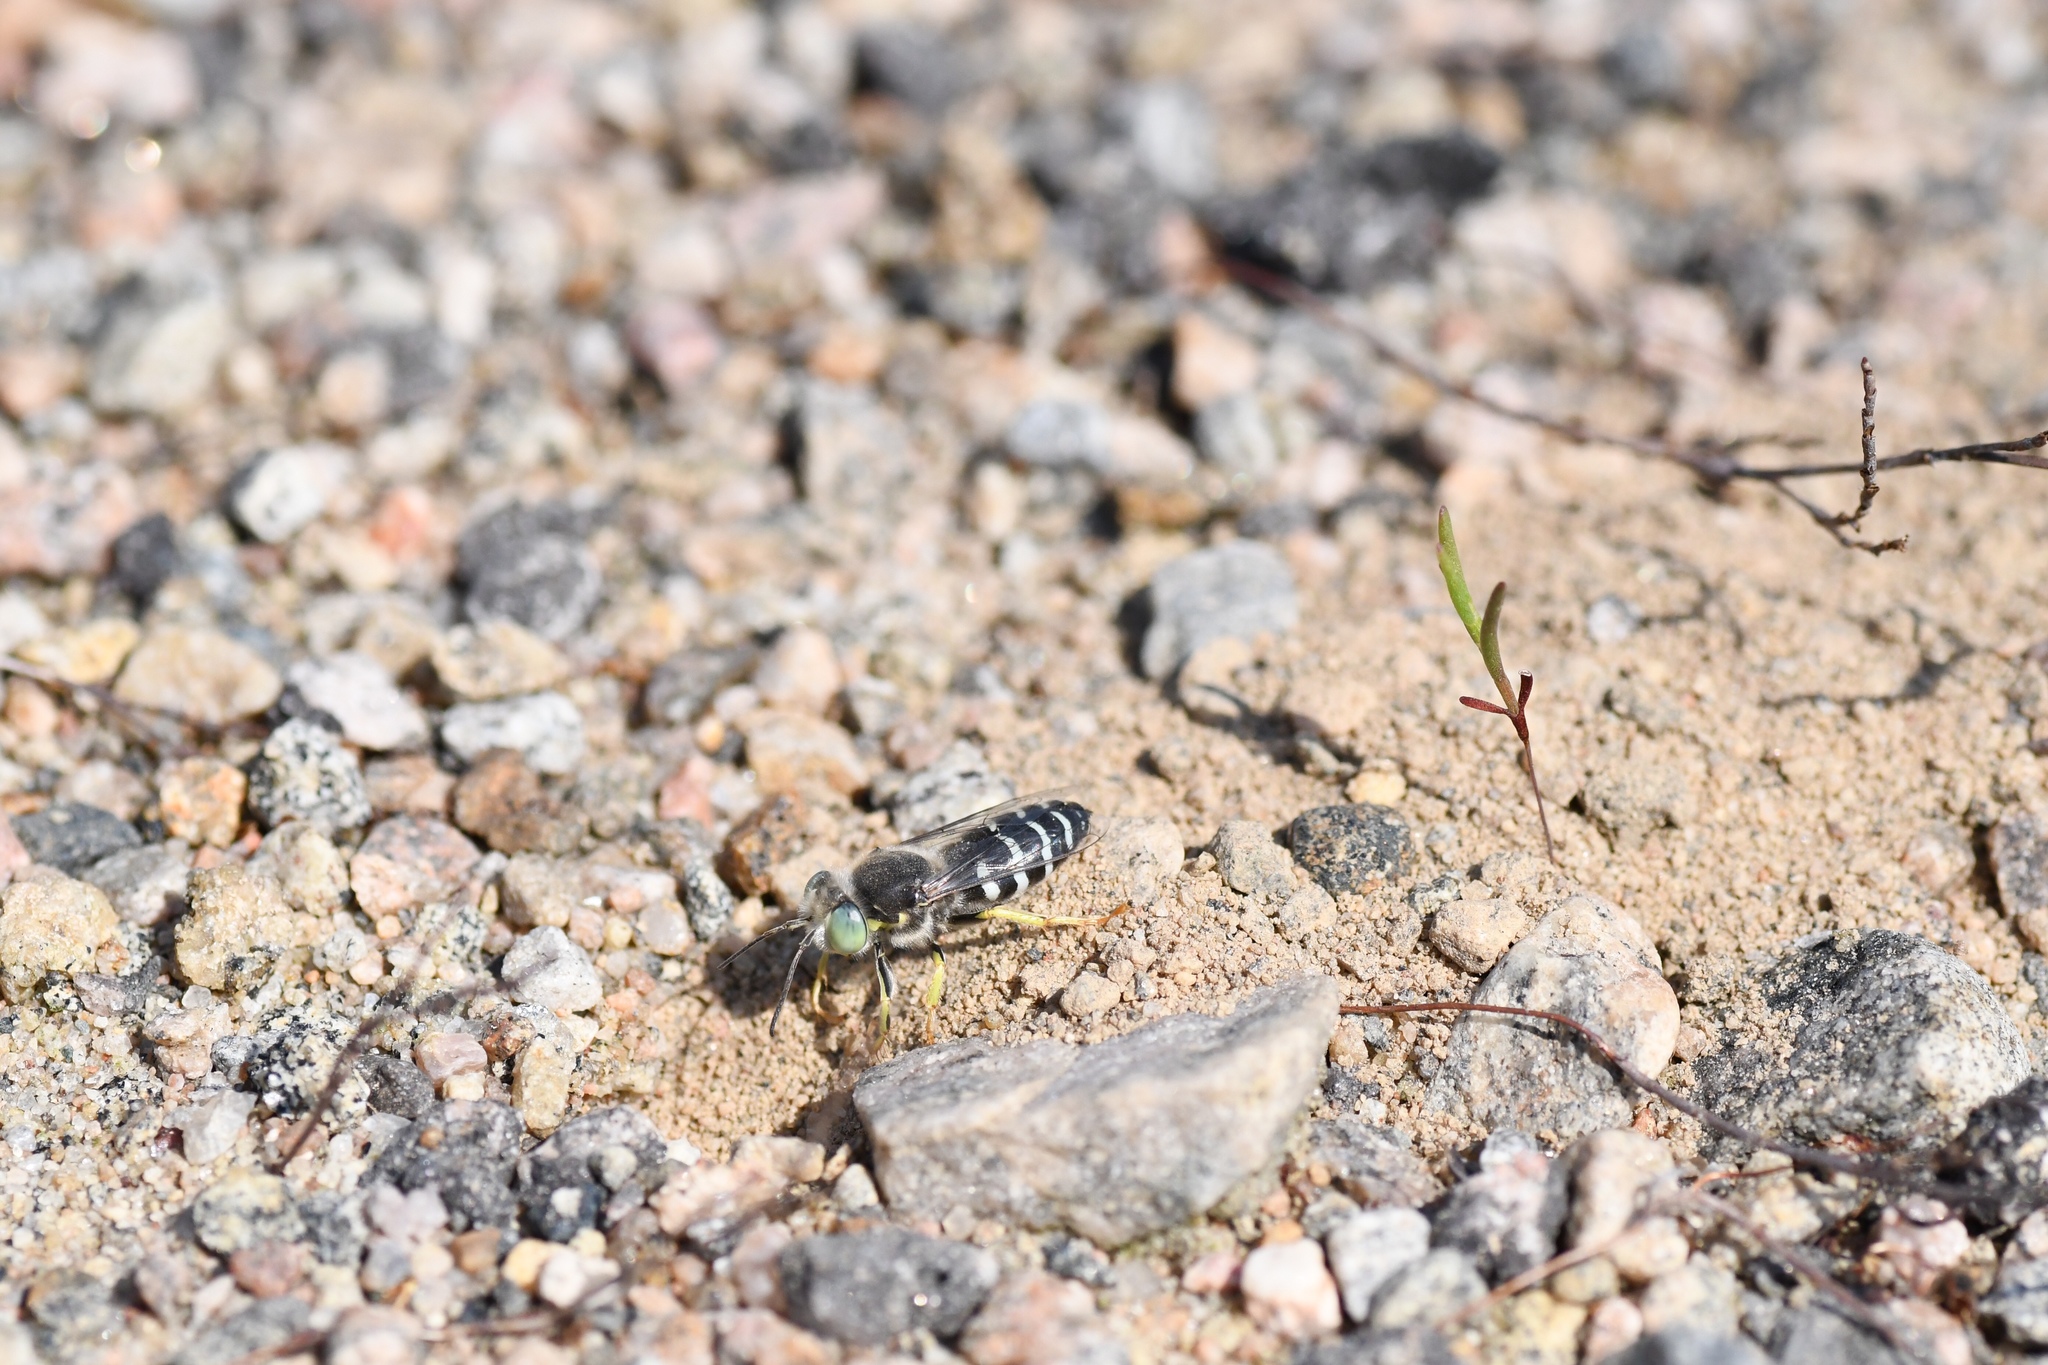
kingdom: Animalia
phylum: Arthropoda
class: Insecta
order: Hymenoptera
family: Crabronidae
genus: Bembix
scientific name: Bembix americana
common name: American sand wasp
